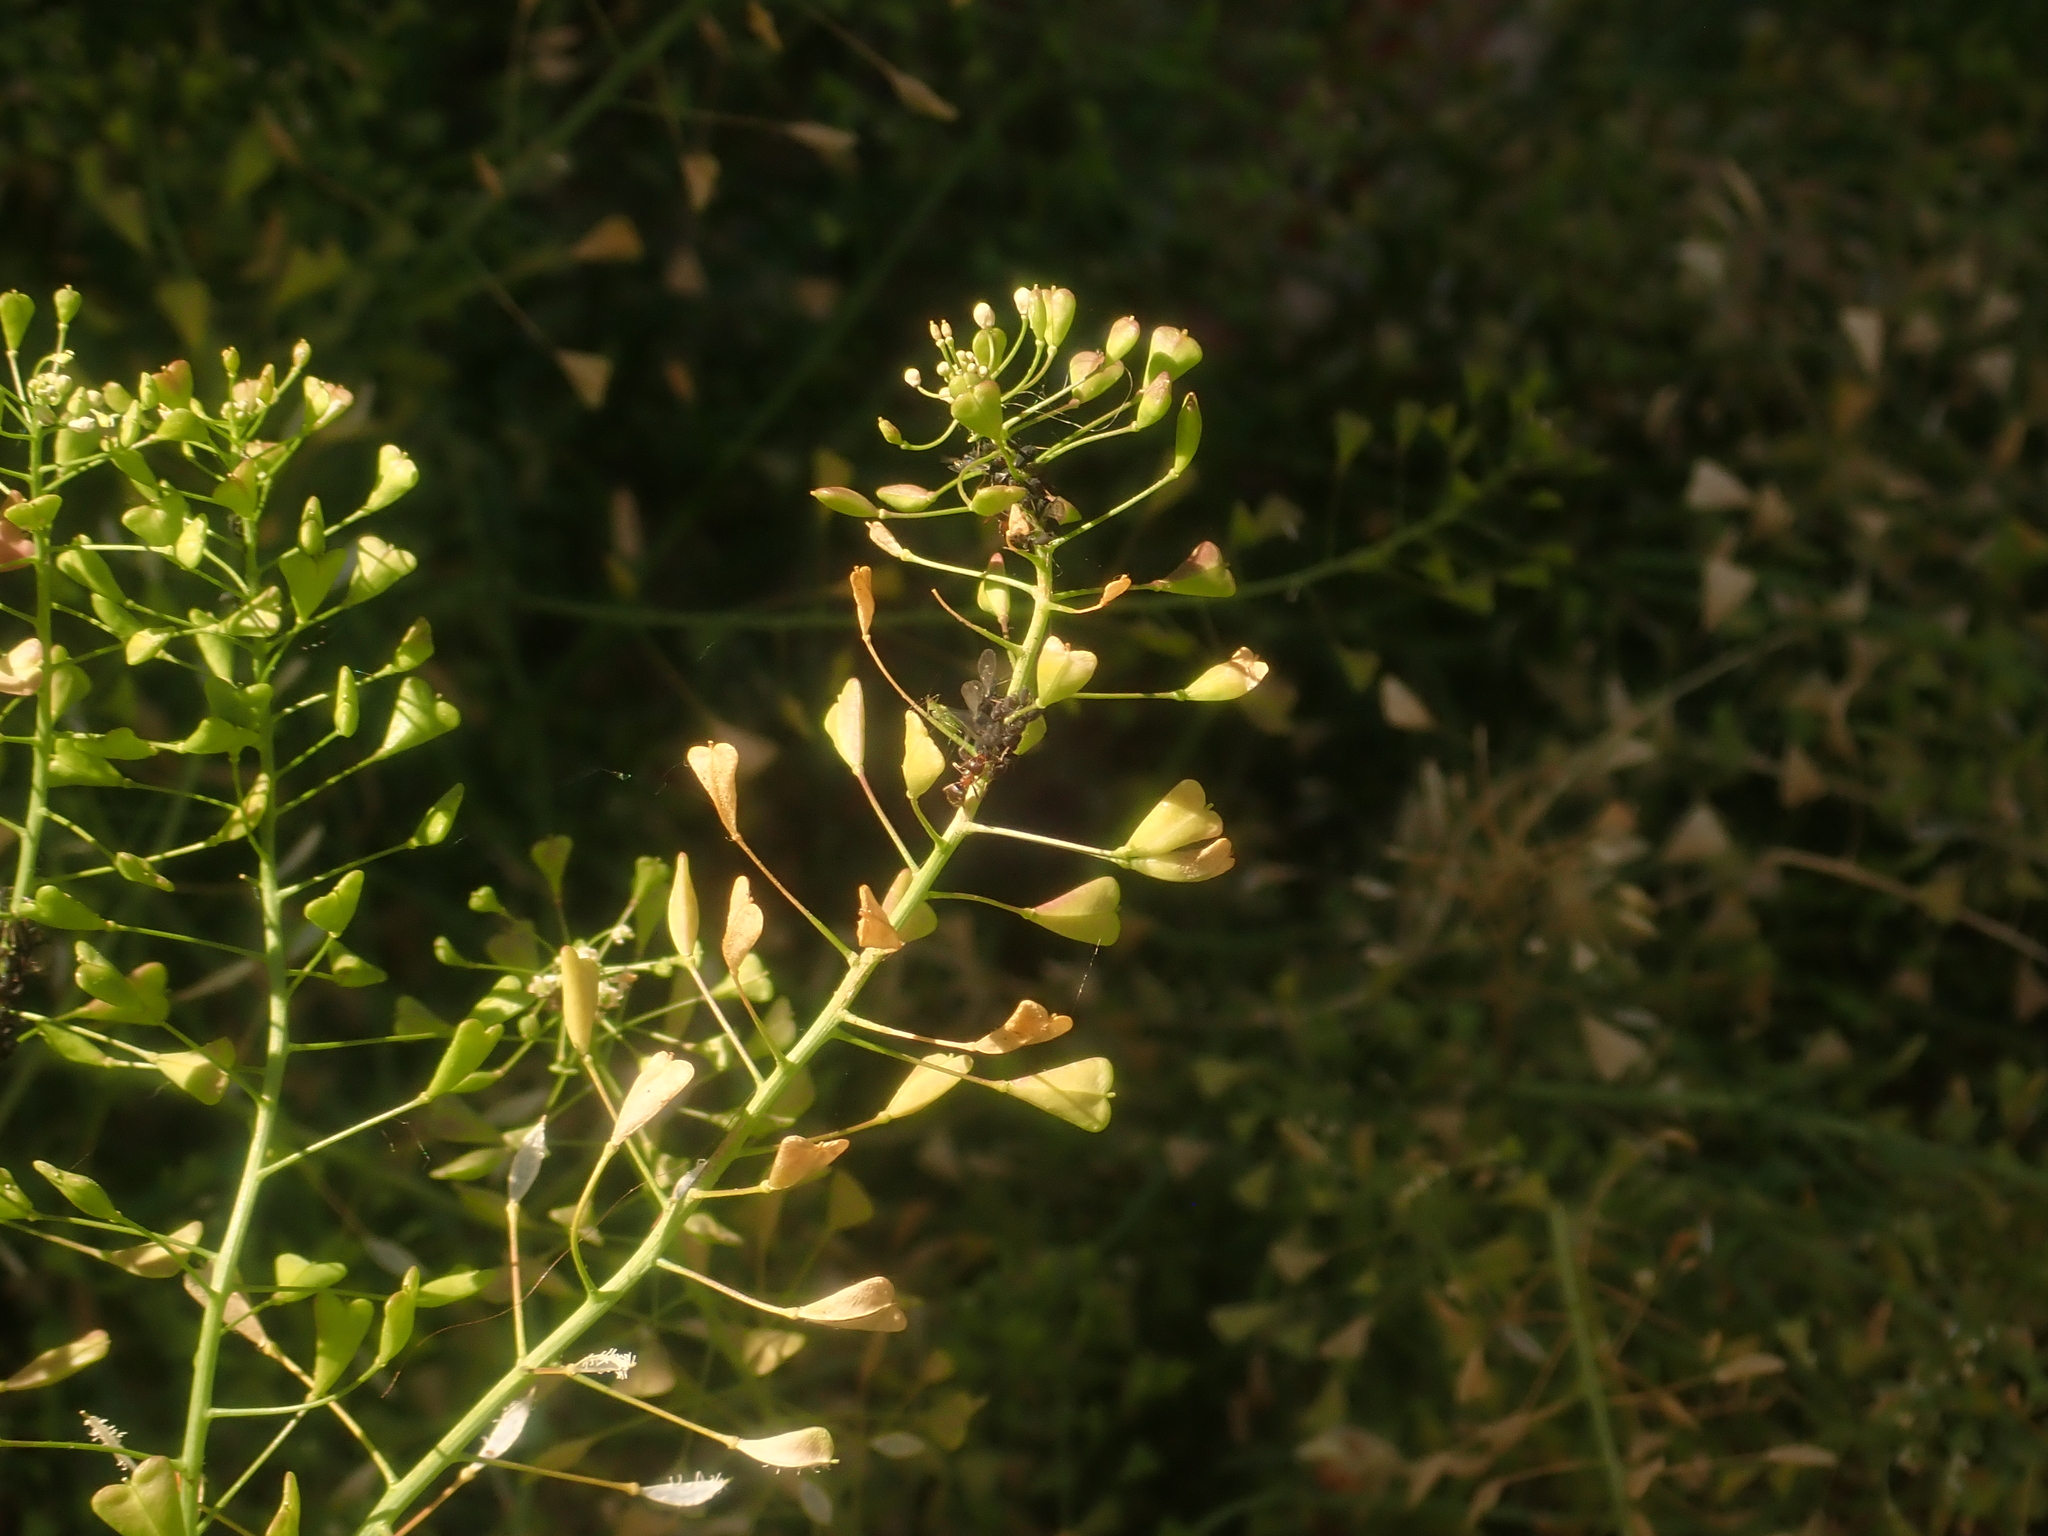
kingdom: Plantae
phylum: Tracheophyta
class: Magnoliopsida
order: Brassicales
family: Brassicaceae
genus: Capsella
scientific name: Capsella bursa-pastoris
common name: Shepherd's purse
